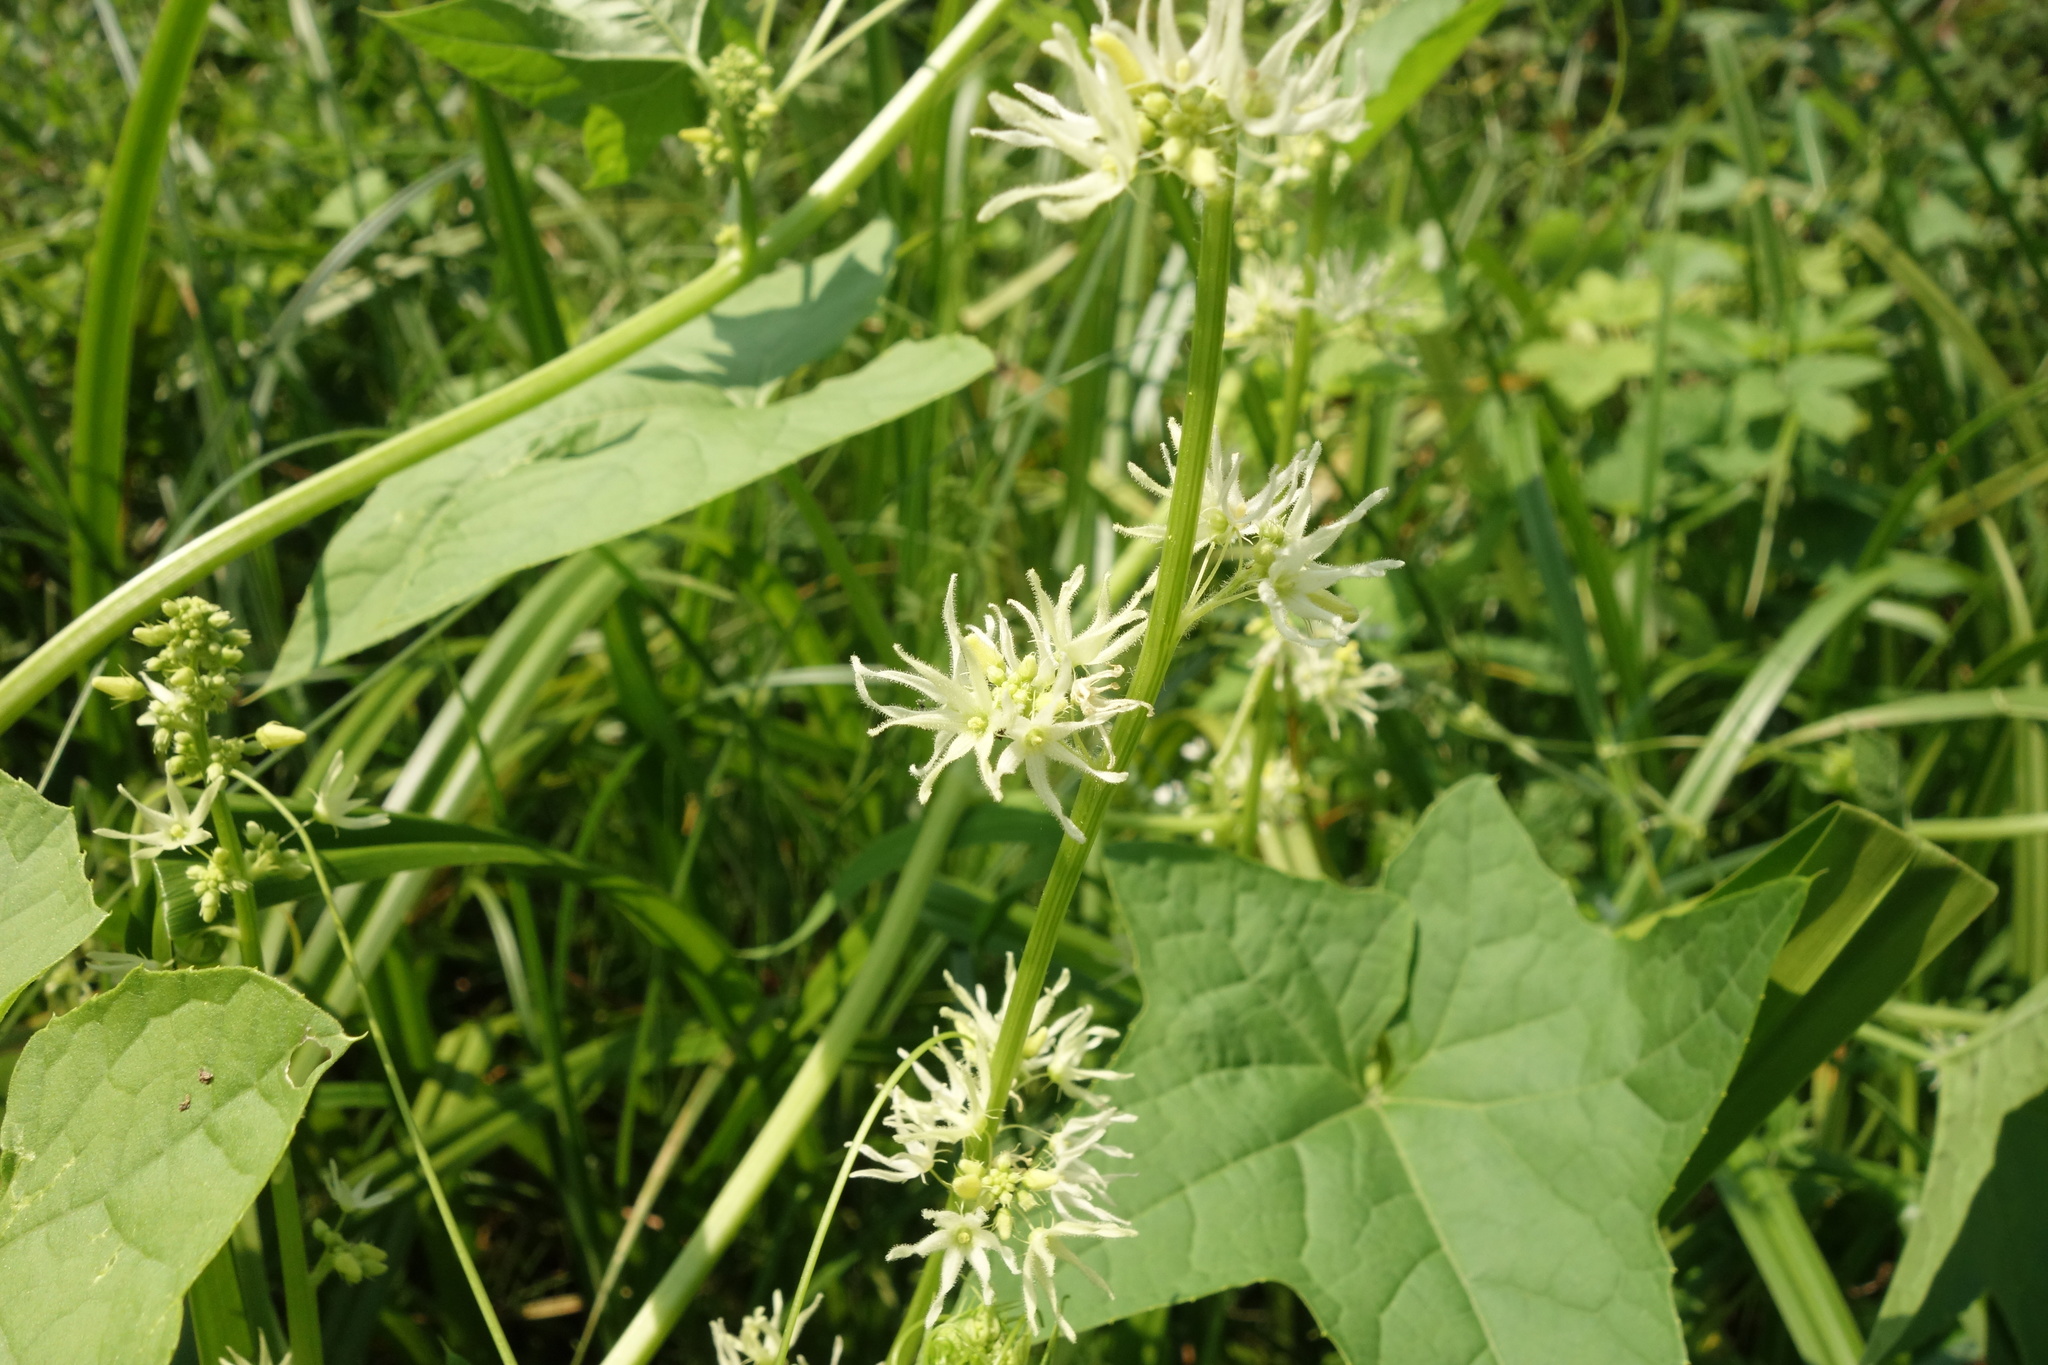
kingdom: Plantae
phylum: Tracheophyta
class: Magnoliopsida
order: Cucurbitales
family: Cucurbitaceae
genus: Echinocystis
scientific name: Echinocystis lobata
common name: Wild cucumber
